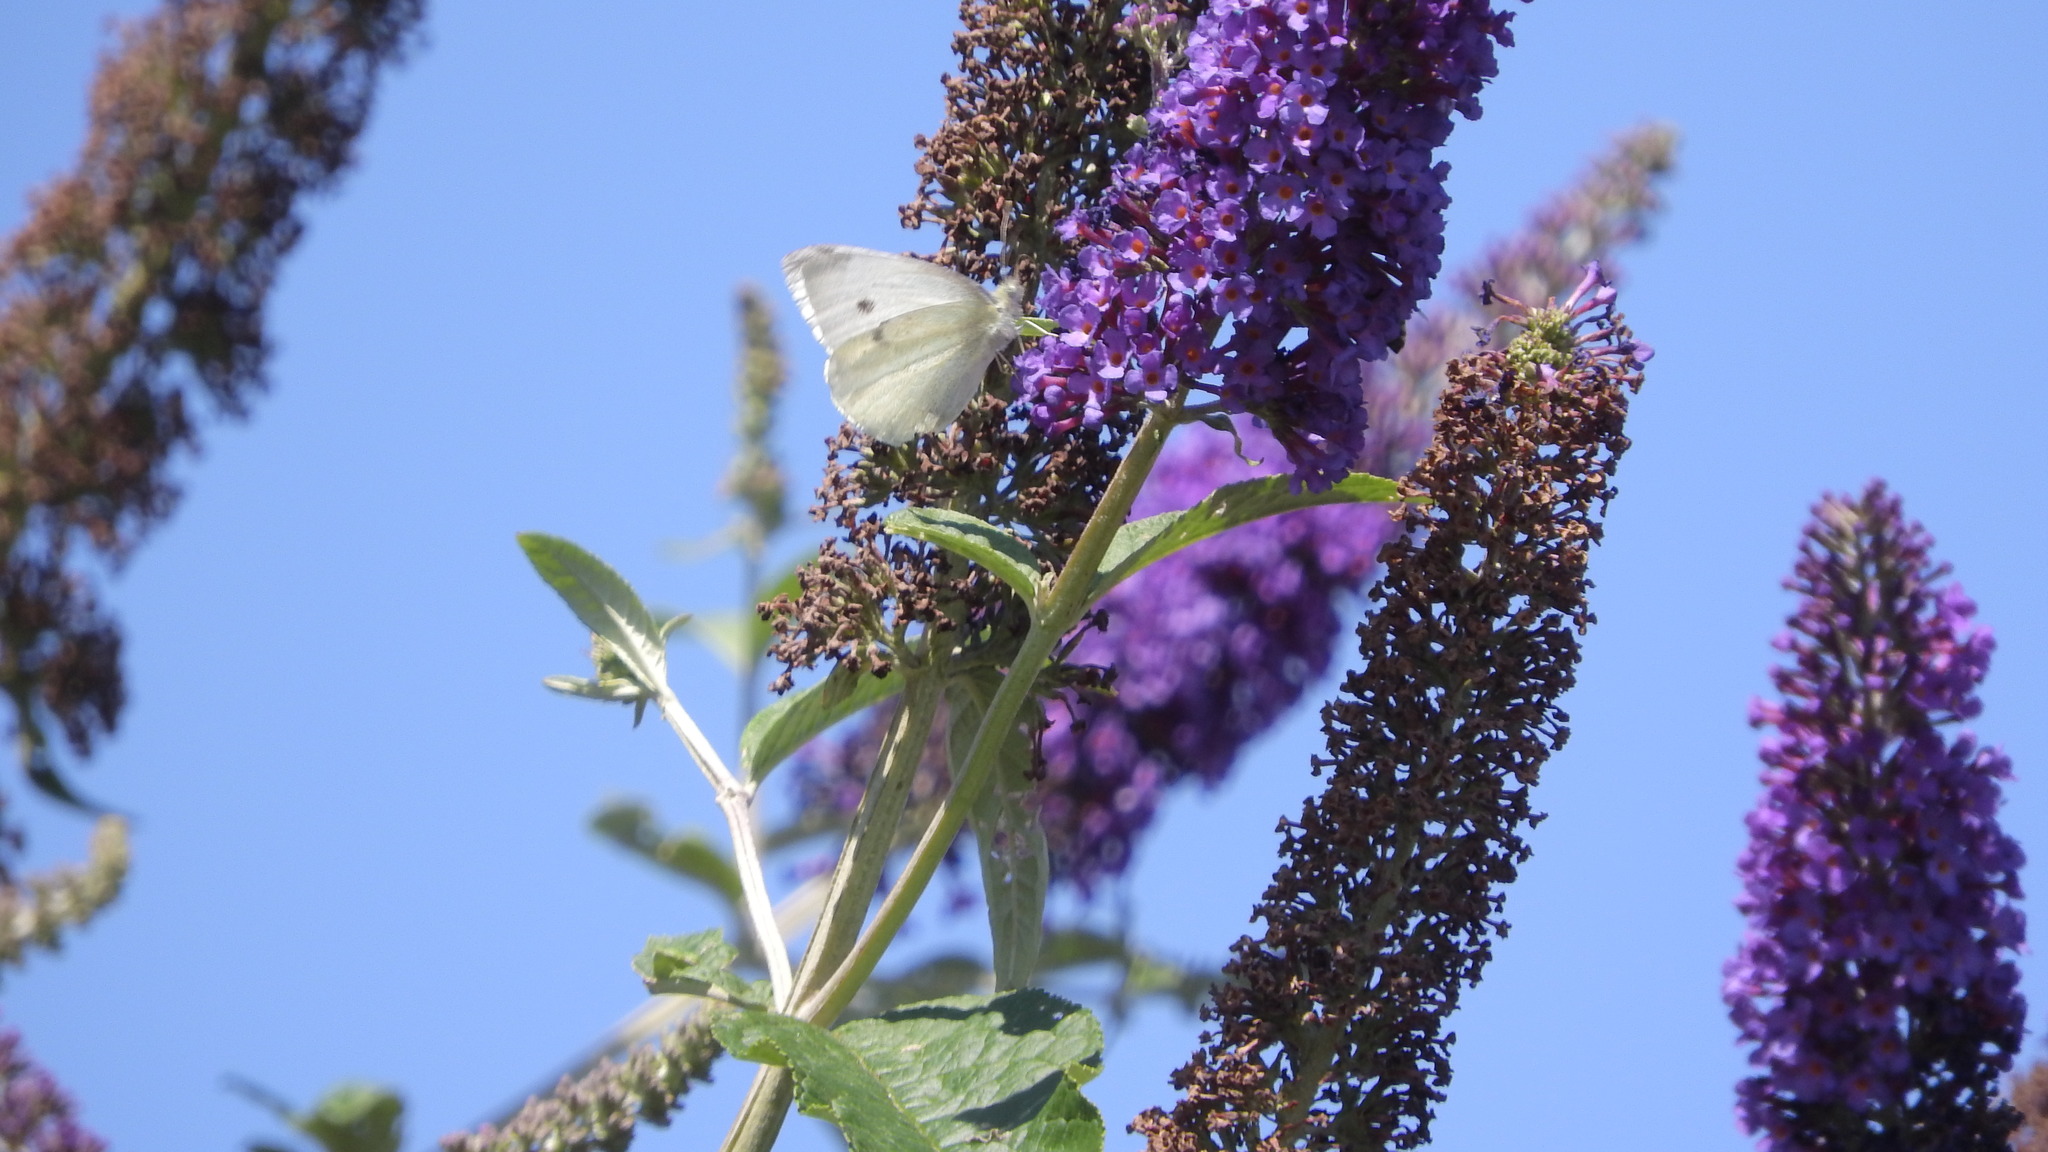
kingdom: Animalia
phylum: Arthropoda
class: Insecta
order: Lepidoptera
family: Pieridae
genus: Pieris
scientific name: Pieris rapae
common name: Small white
